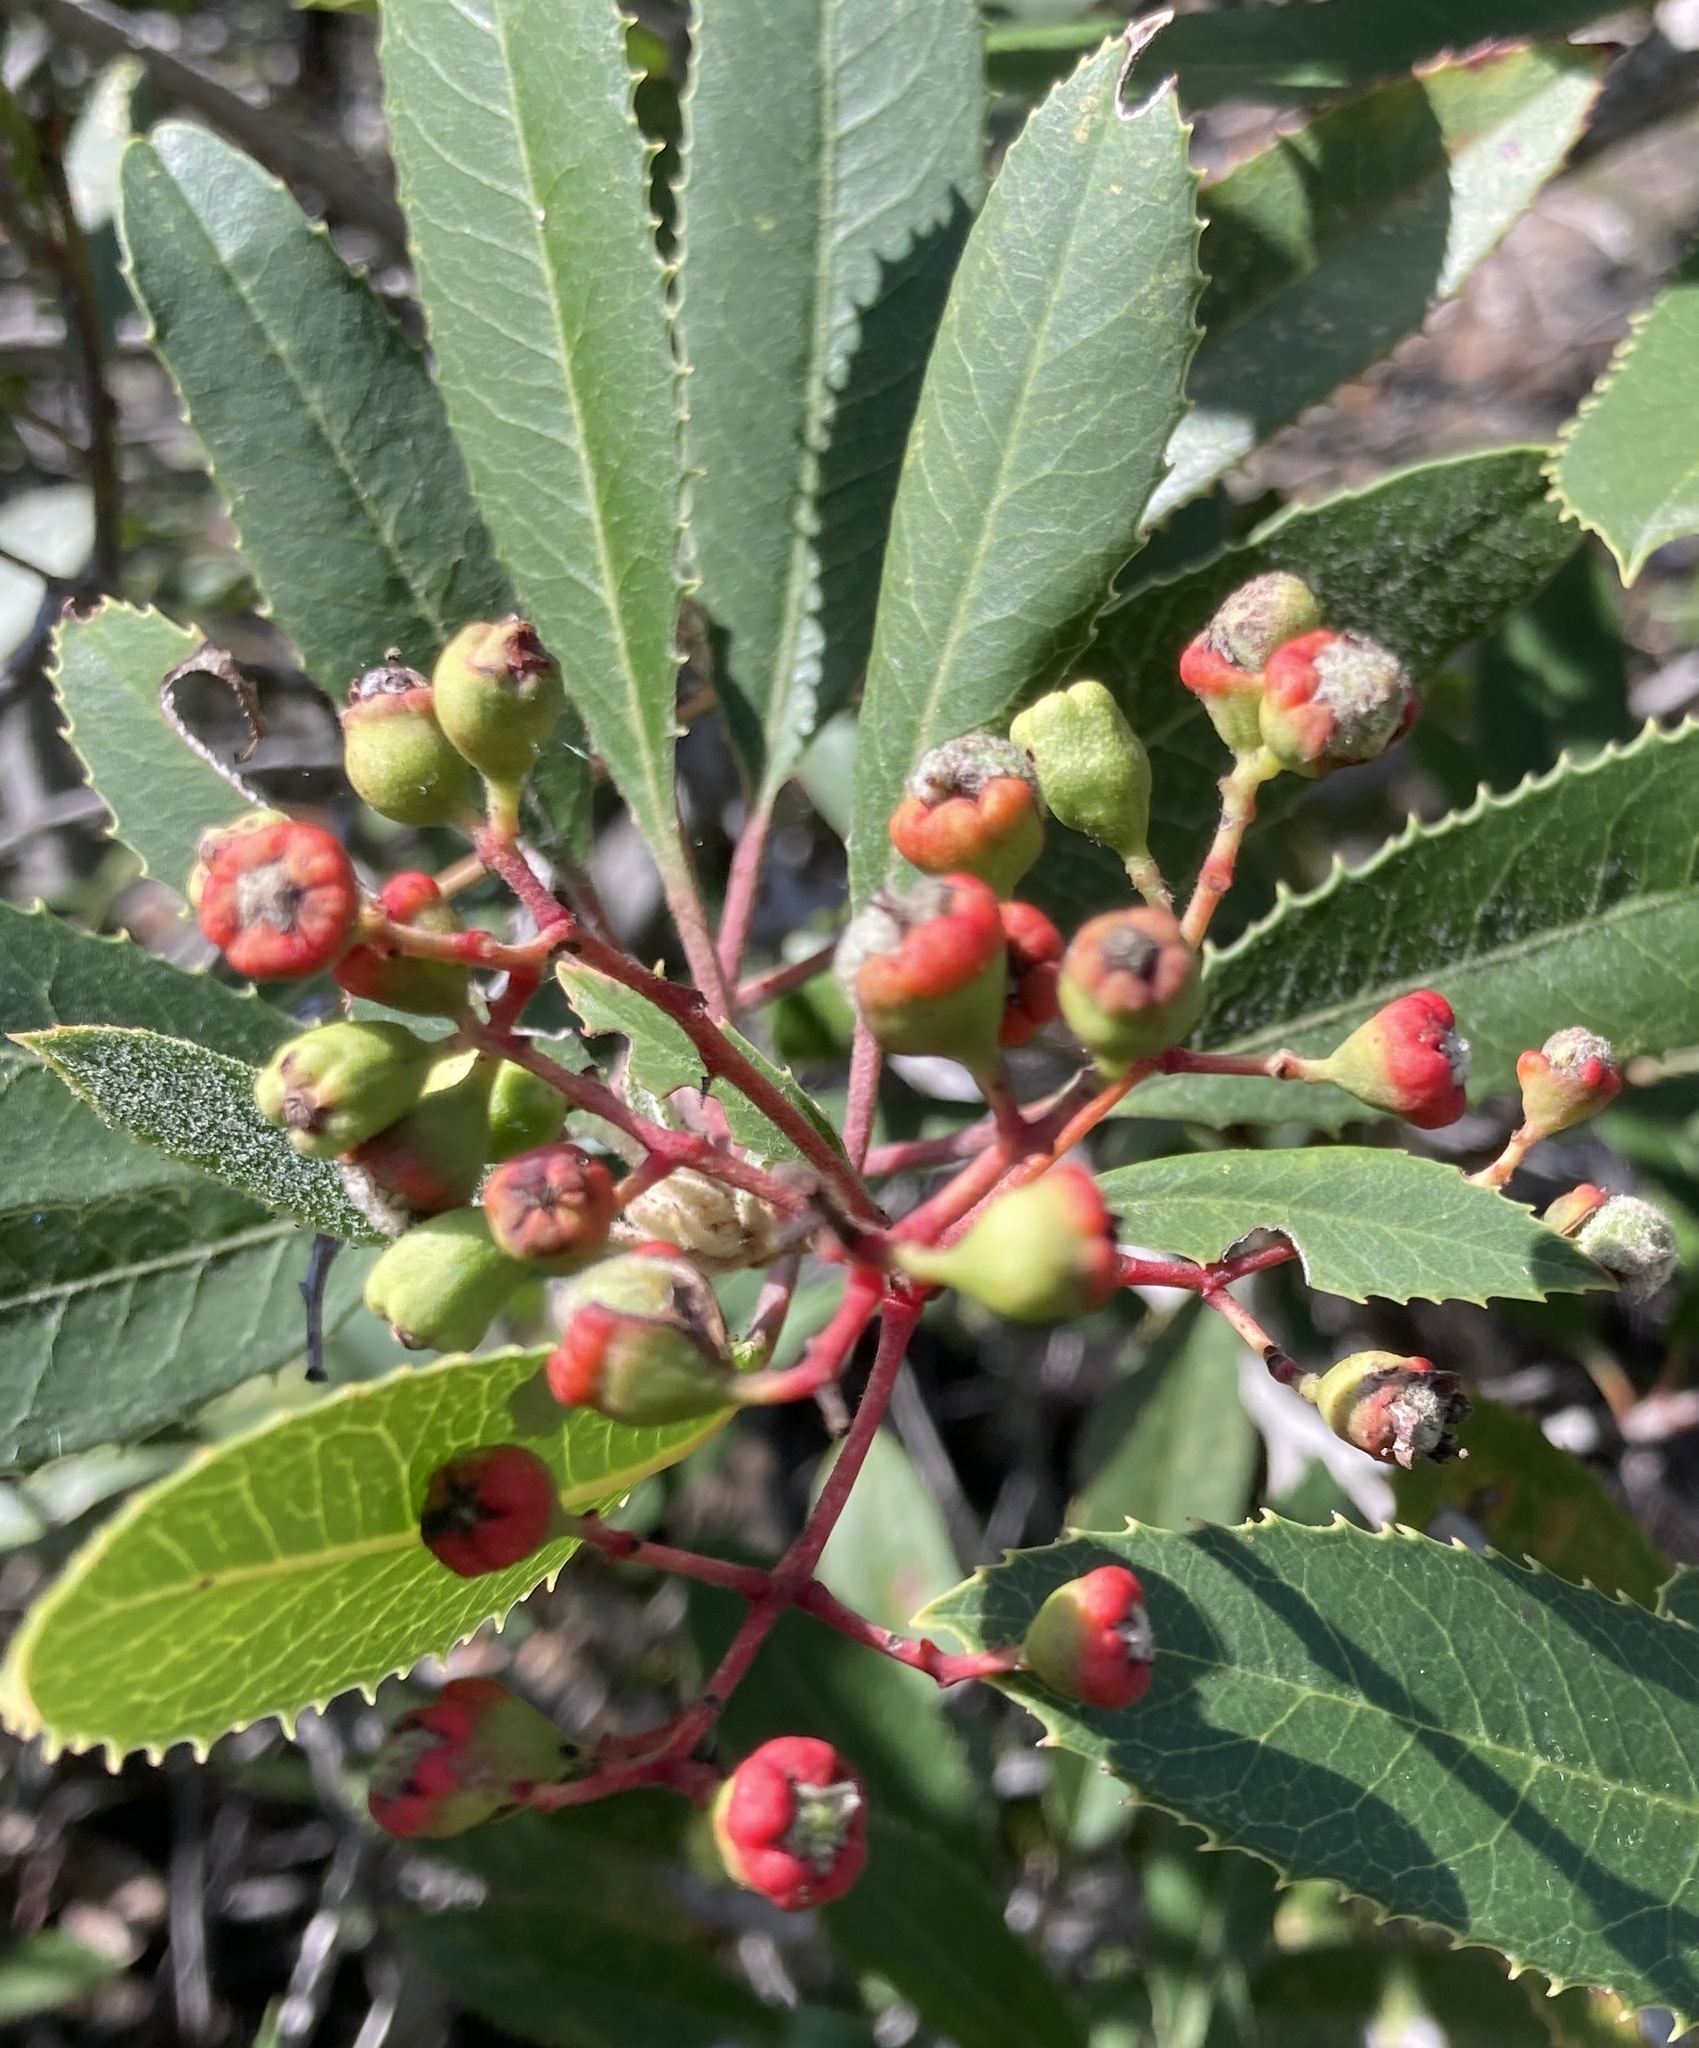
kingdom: Animalia
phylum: Arthropoda
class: Insecta
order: Diptera
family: Cecidomyiidae
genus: Asphondylia
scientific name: Asphondylia photiniae
